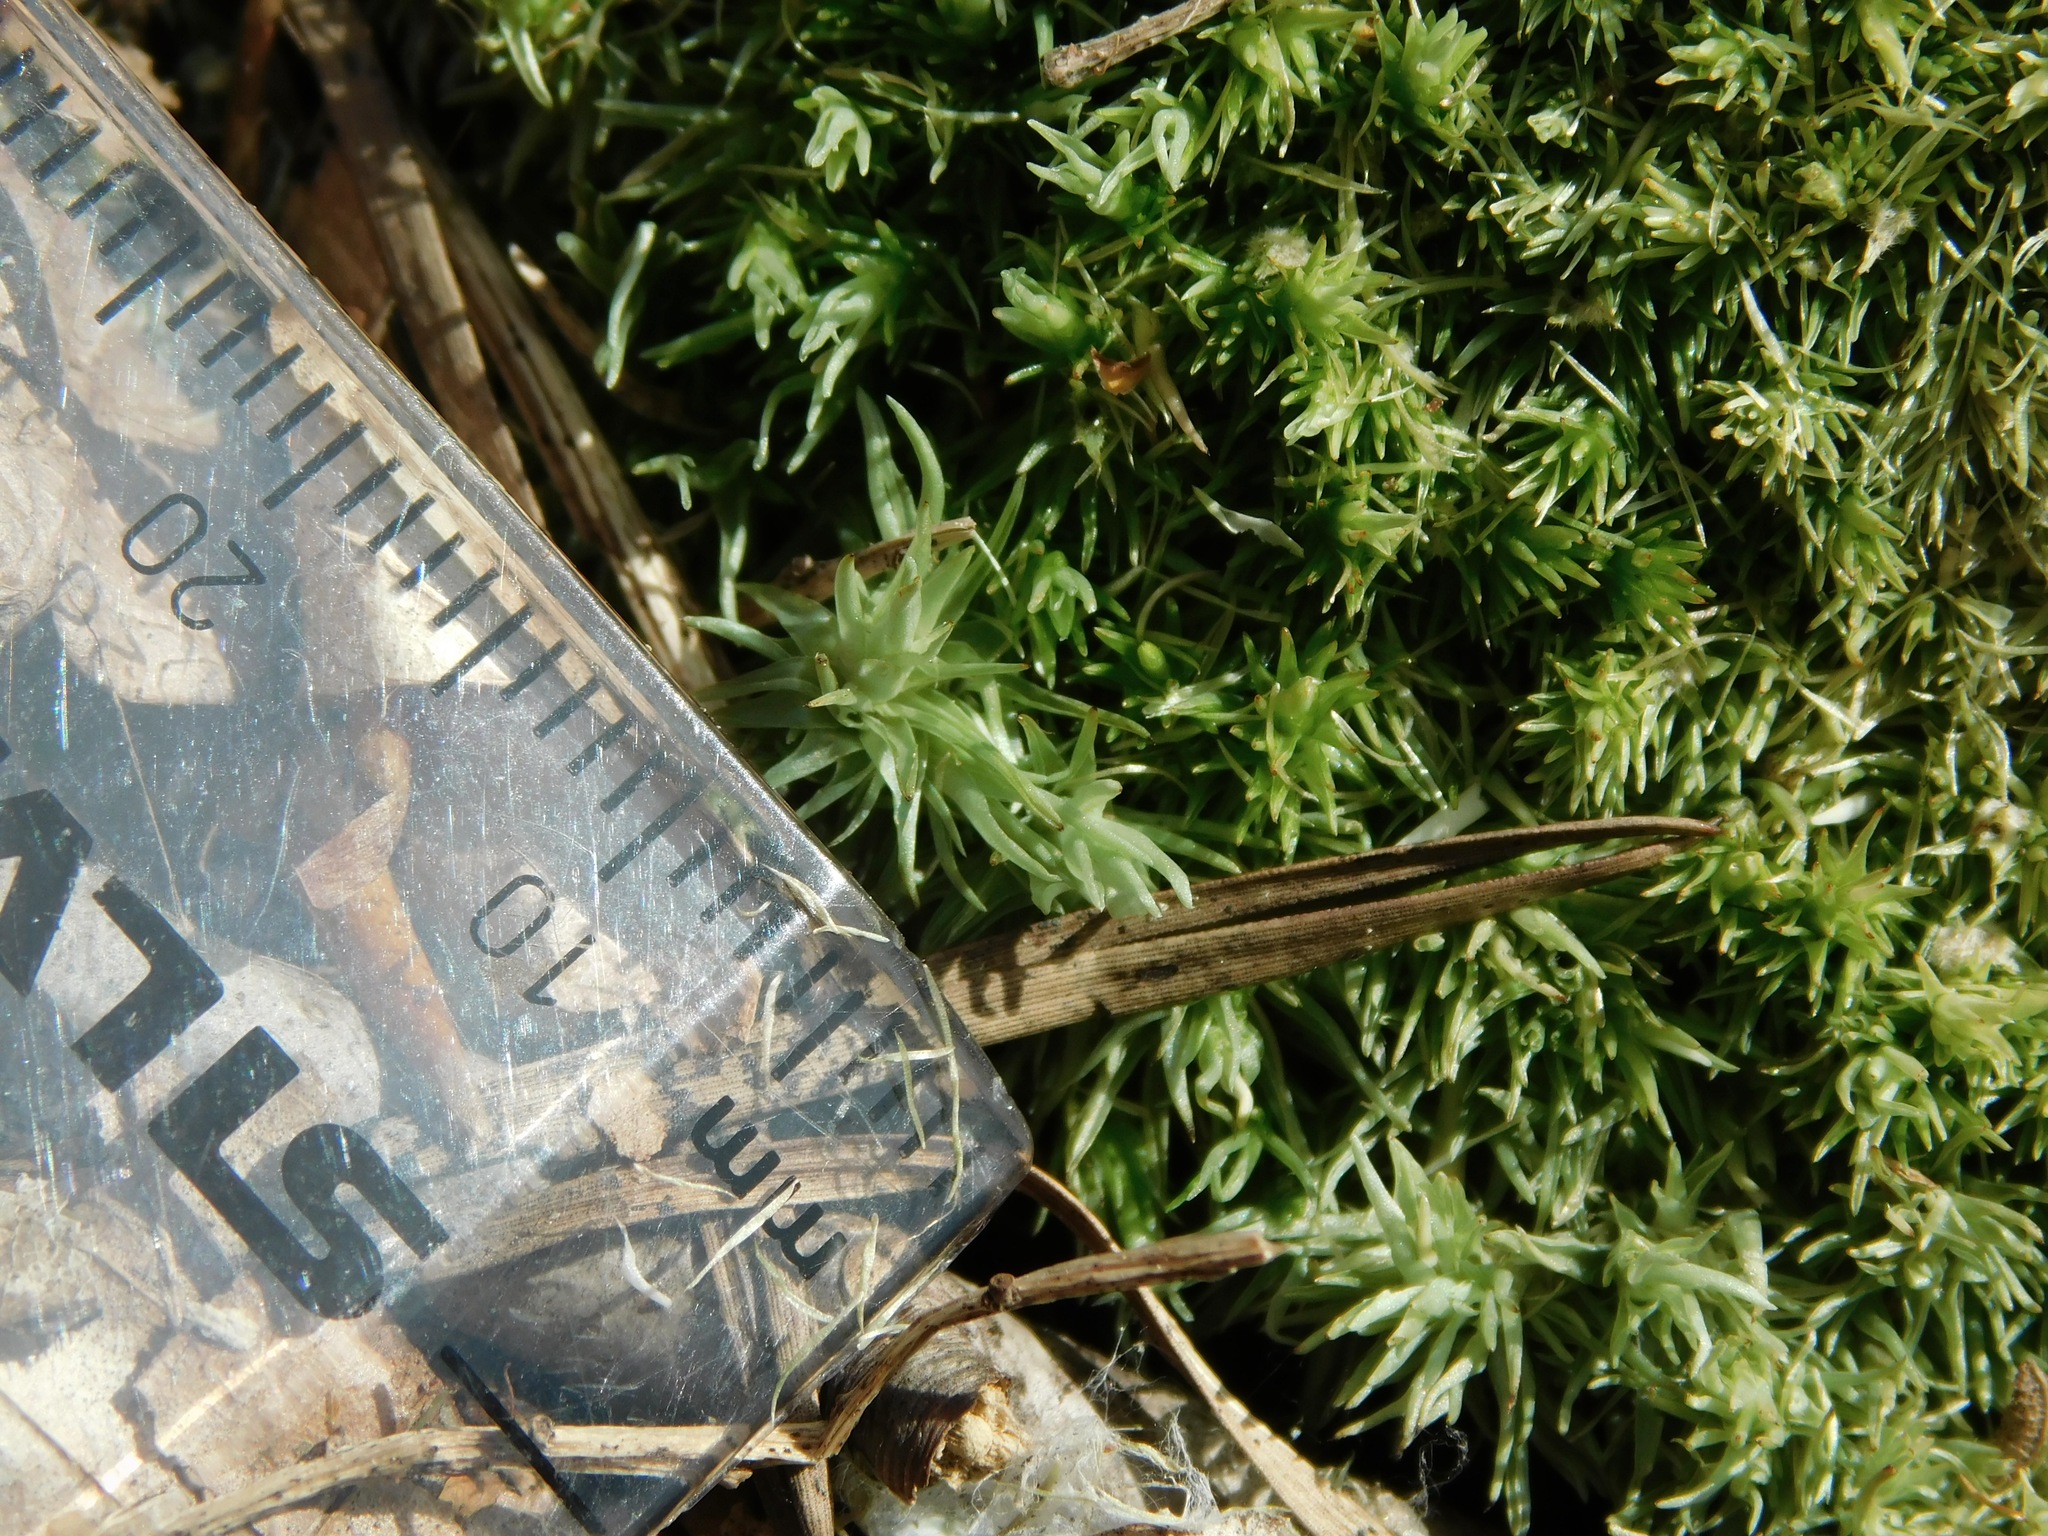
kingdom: Plantae
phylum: Bryophyta
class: Bryopsida
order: Dicranales
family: Leucobryaceae
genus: Leucobryum
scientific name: Leucobryum glaucum
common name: Large white-moss
